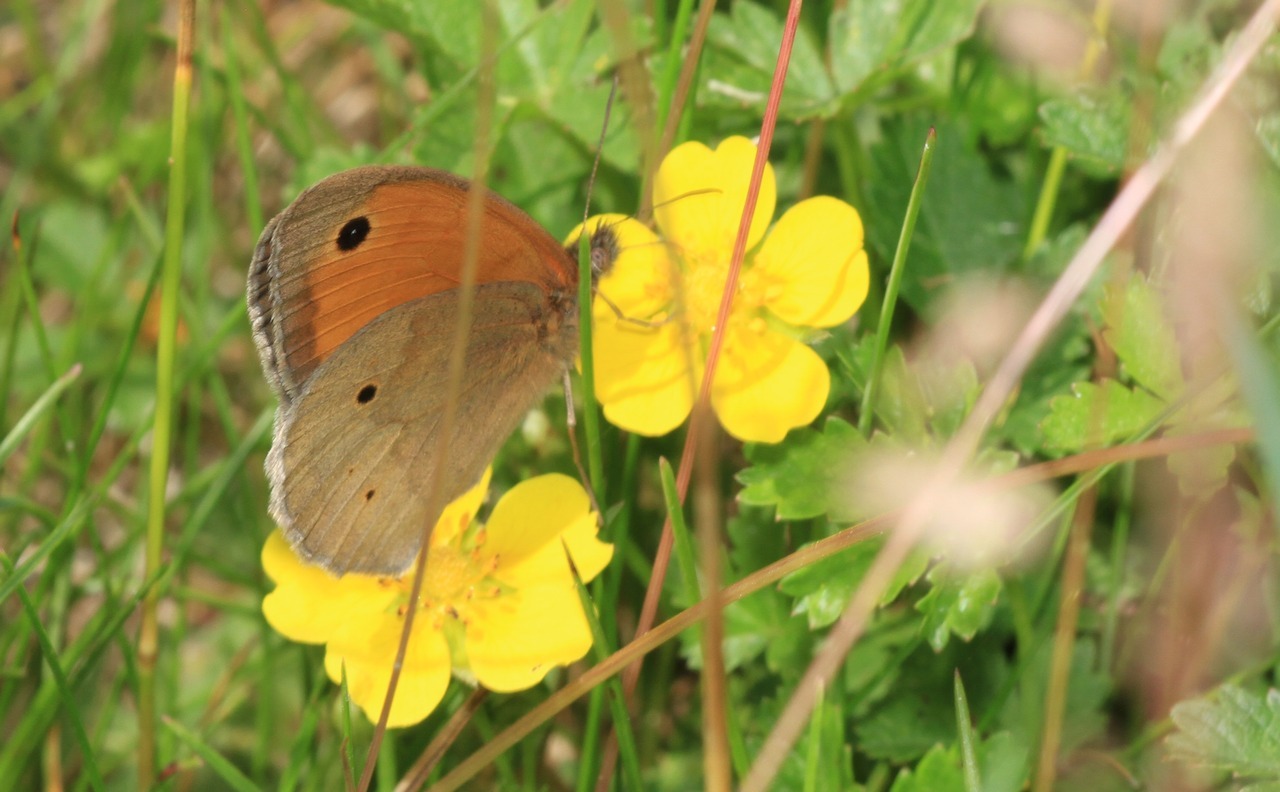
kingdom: Animalia
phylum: Arthropoda
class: Insecta
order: Lepidoptera
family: Nymphalidae
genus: Maniola
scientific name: Maniola jurtina
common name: Meadow brown
